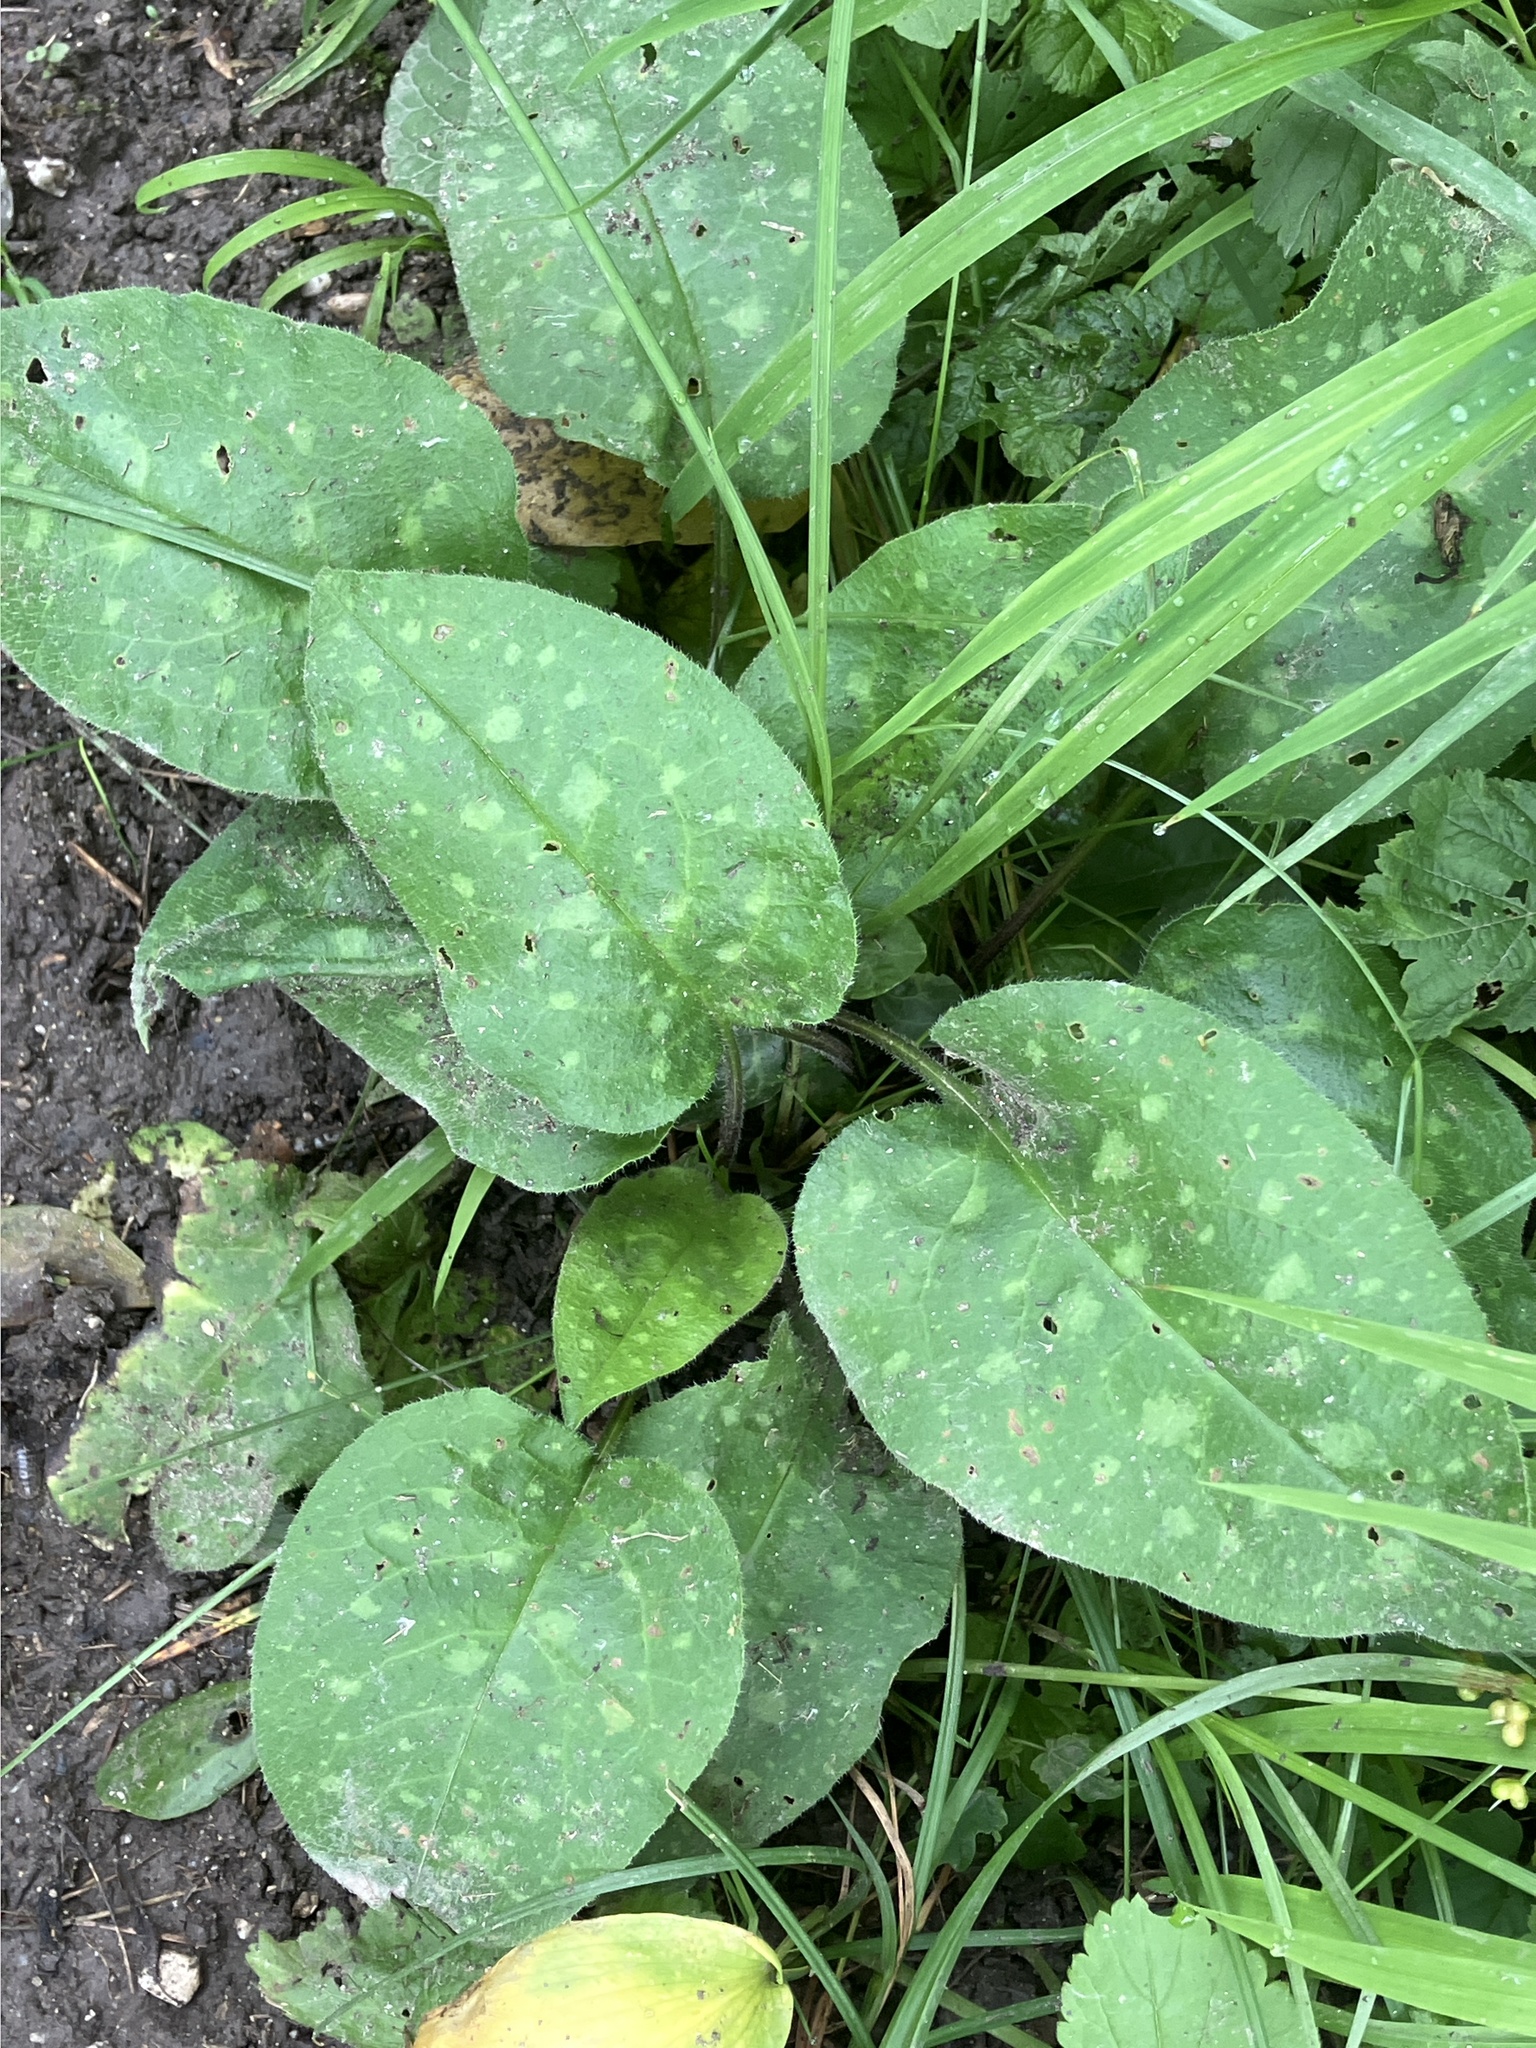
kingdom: Plantae
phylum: Tracheophyta
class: Magnoliopsida
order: Boraginales
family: Boraginaceae
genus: Pulmonaria
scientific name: Pulmonaria officinalis
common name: Lungwort
